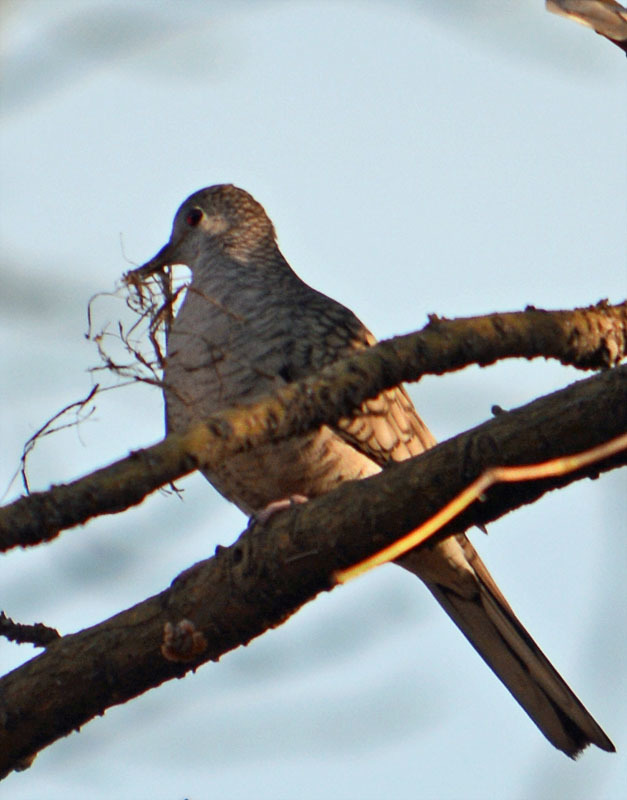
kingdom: Animalia
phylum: Chordata
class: Aves
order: Columbiformes
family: Columbidae
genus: Columbina
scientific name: Columbina inca
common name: Inca dove
